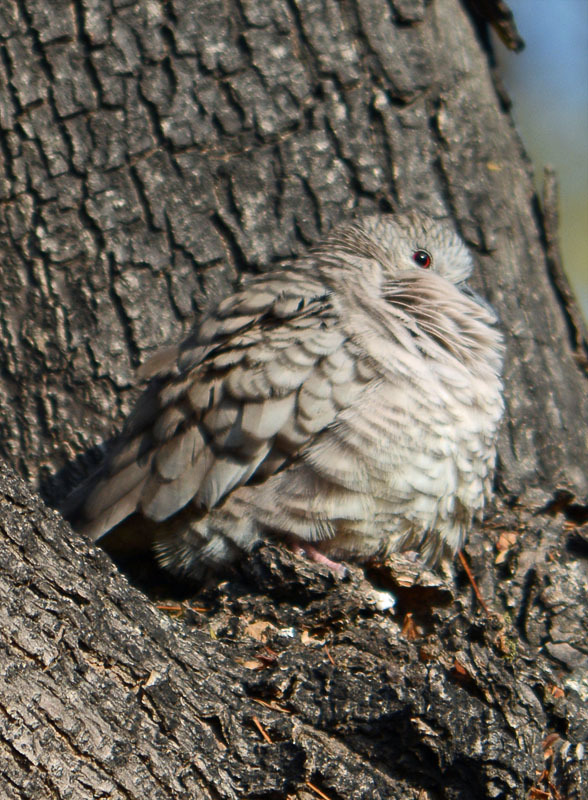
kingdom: Animalia
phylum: Chordata
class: Aves
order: Columbiformes
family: Columbidae
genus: Columbina
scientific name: Columbina inca
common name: Inca dove
